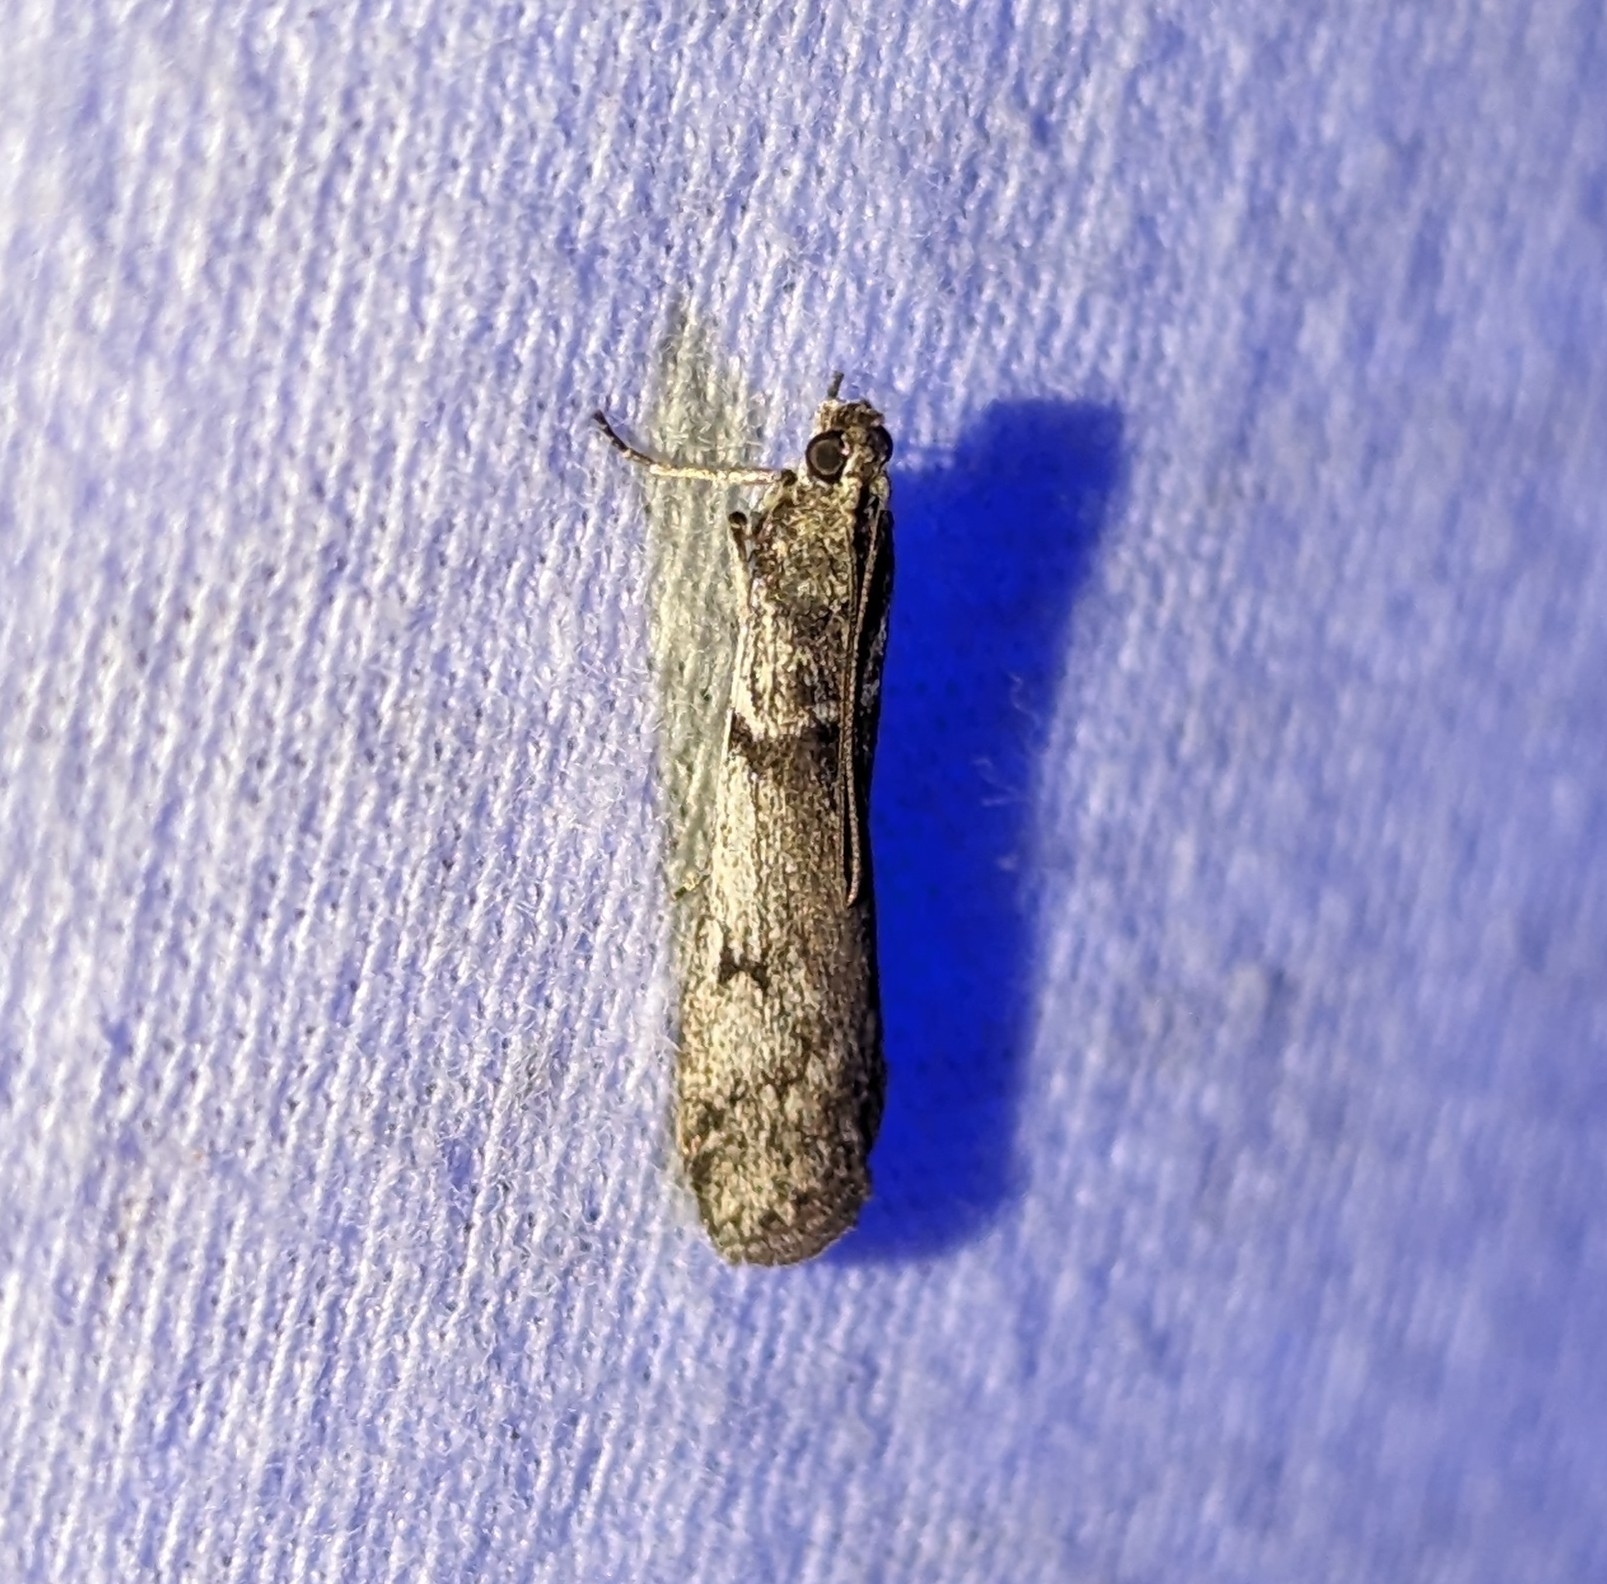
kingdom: Animalia
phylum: Arthropoda
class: Insecta
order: Lepidoptera
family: Pyralidae
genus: Zophodia
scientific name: Zophodia convolutella
